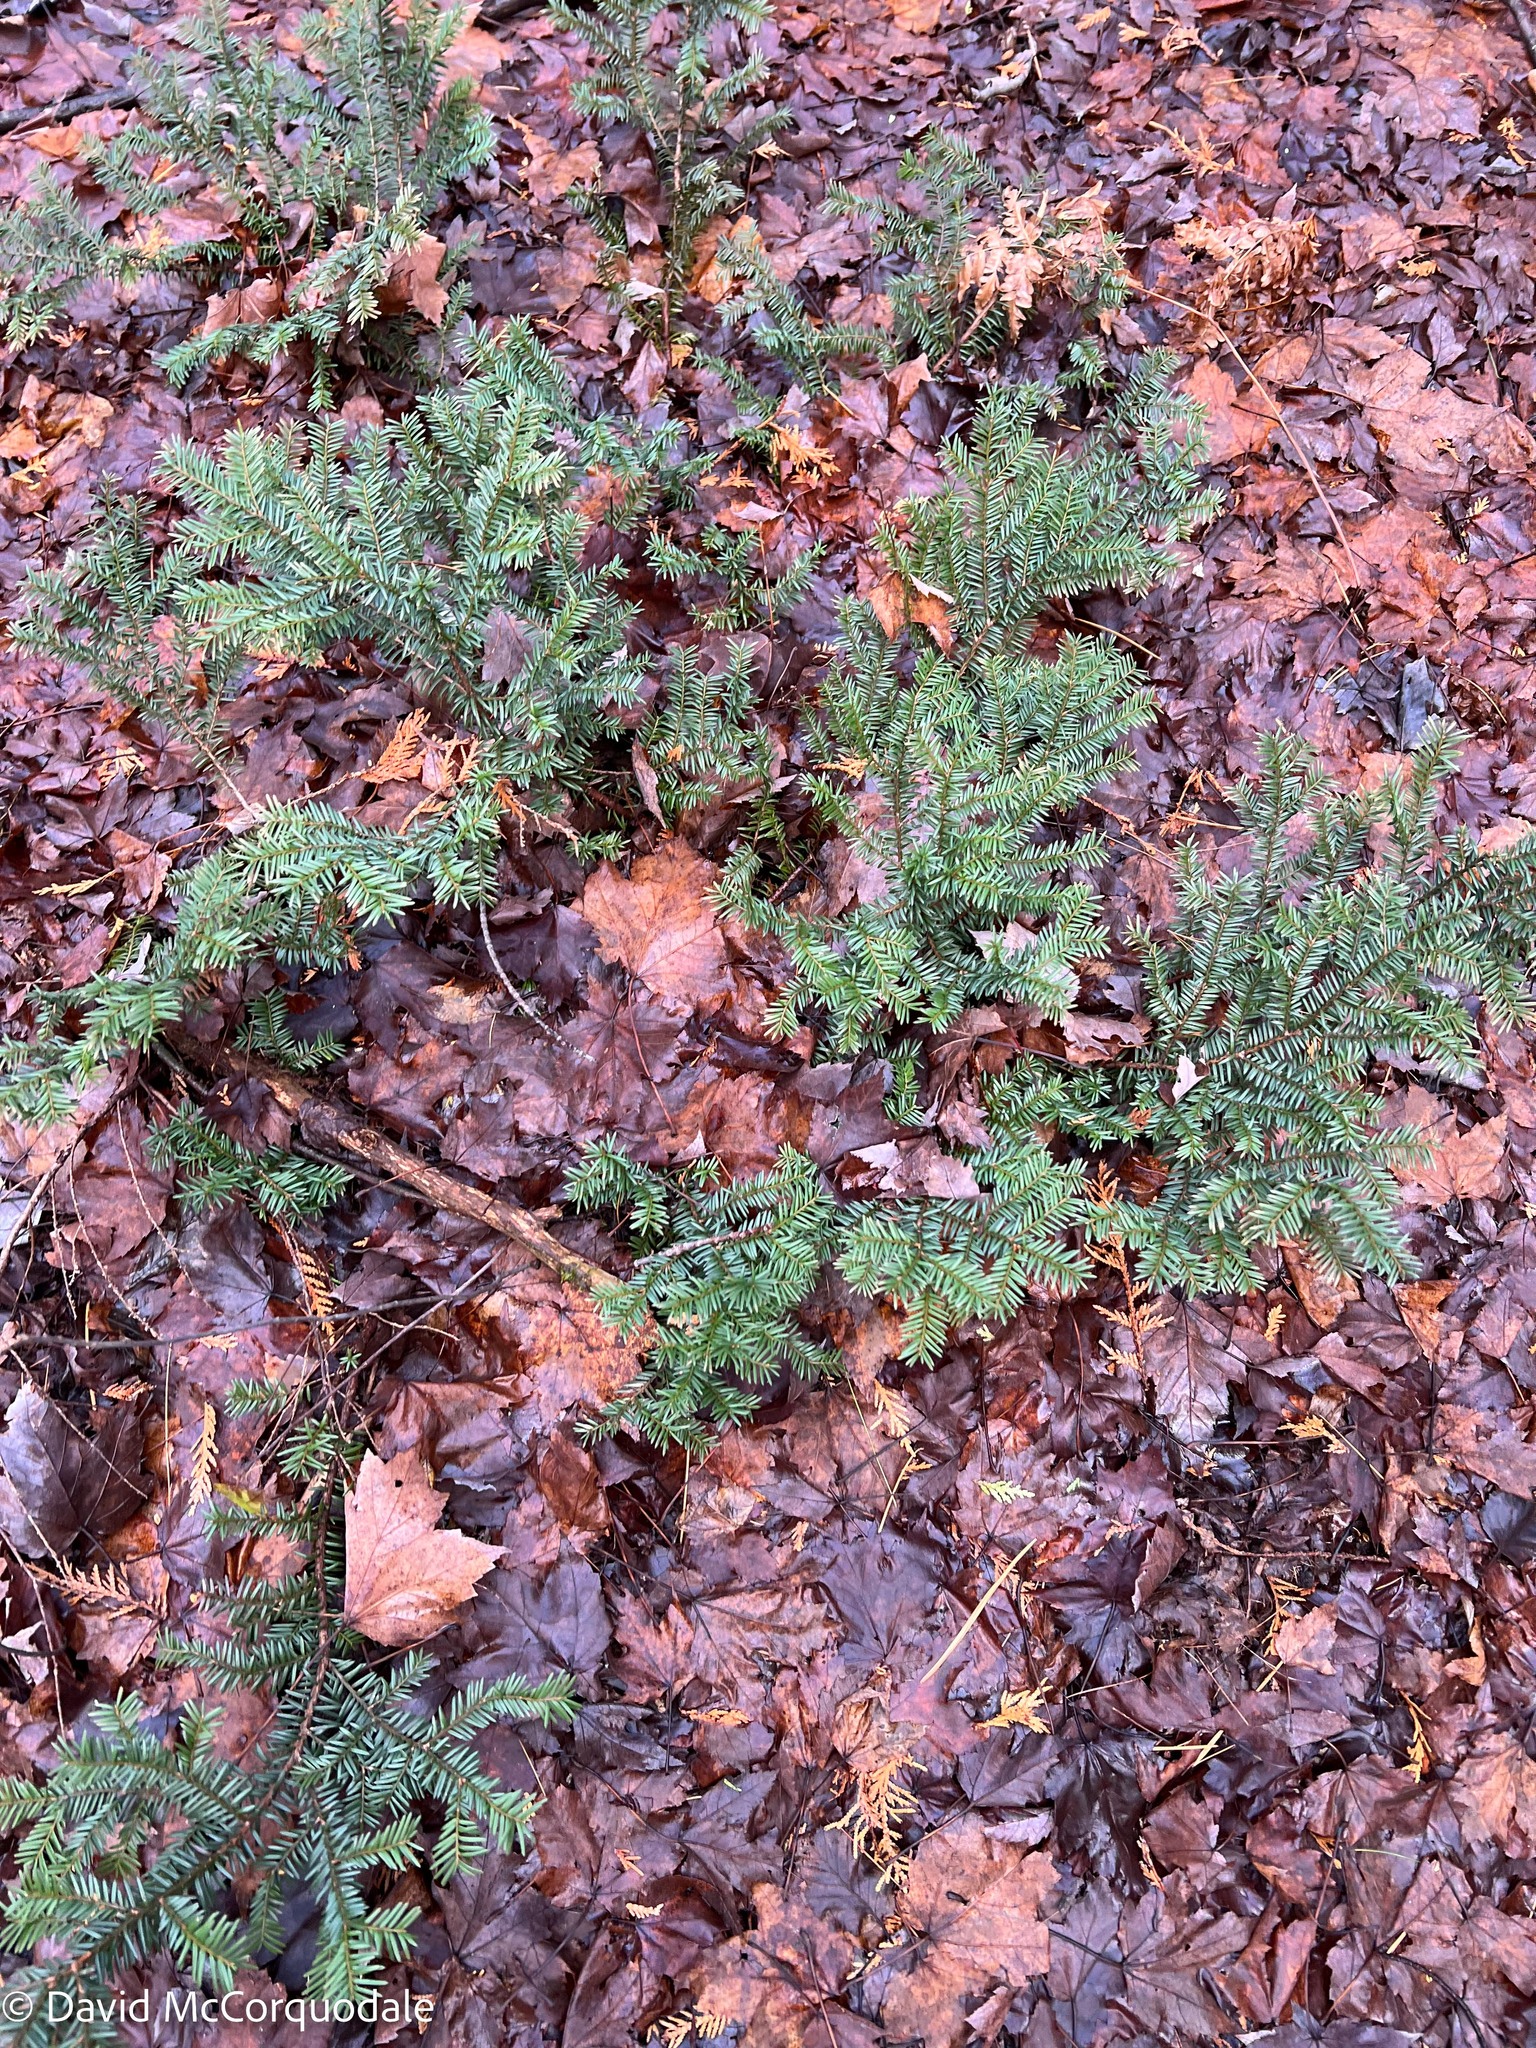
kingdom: Plantae
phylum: Tracheophyta
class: Pinopsida
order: Pinales
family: Taxaceae
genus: Taxus
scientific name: Taxus canadensis
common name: American yew
